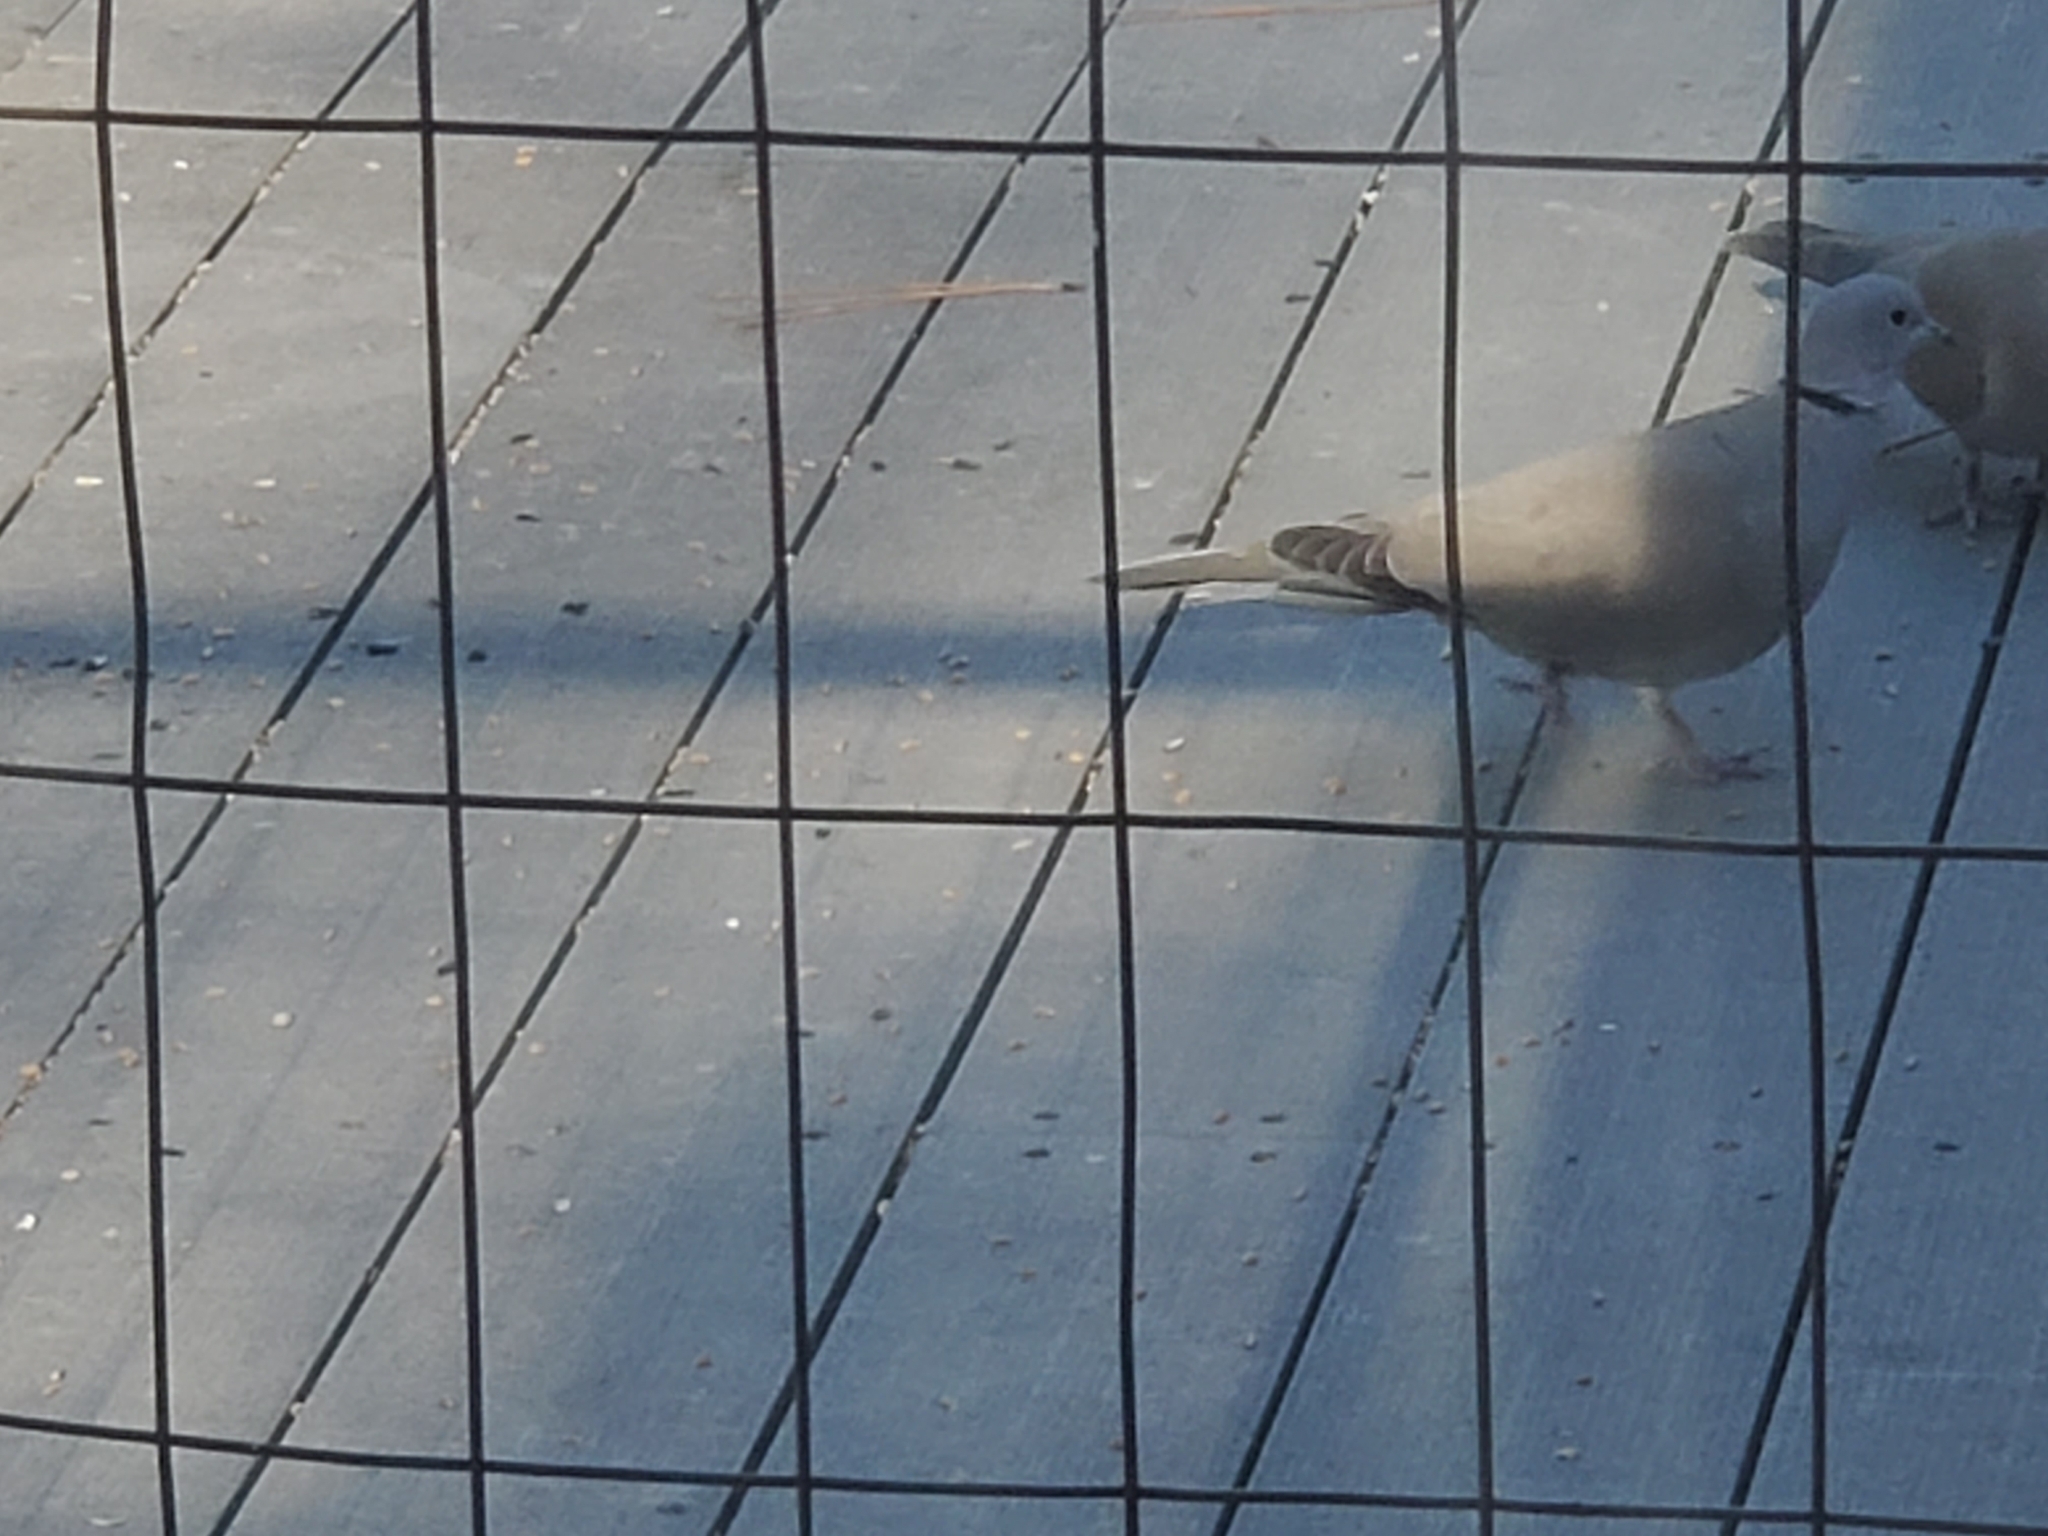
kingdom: Animalia
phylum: Chordata
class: Aves
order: Columbiformes
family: Columbidae
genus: Streptopelia
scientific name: Streptopelia decaocto
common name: Eurasian collared dove
